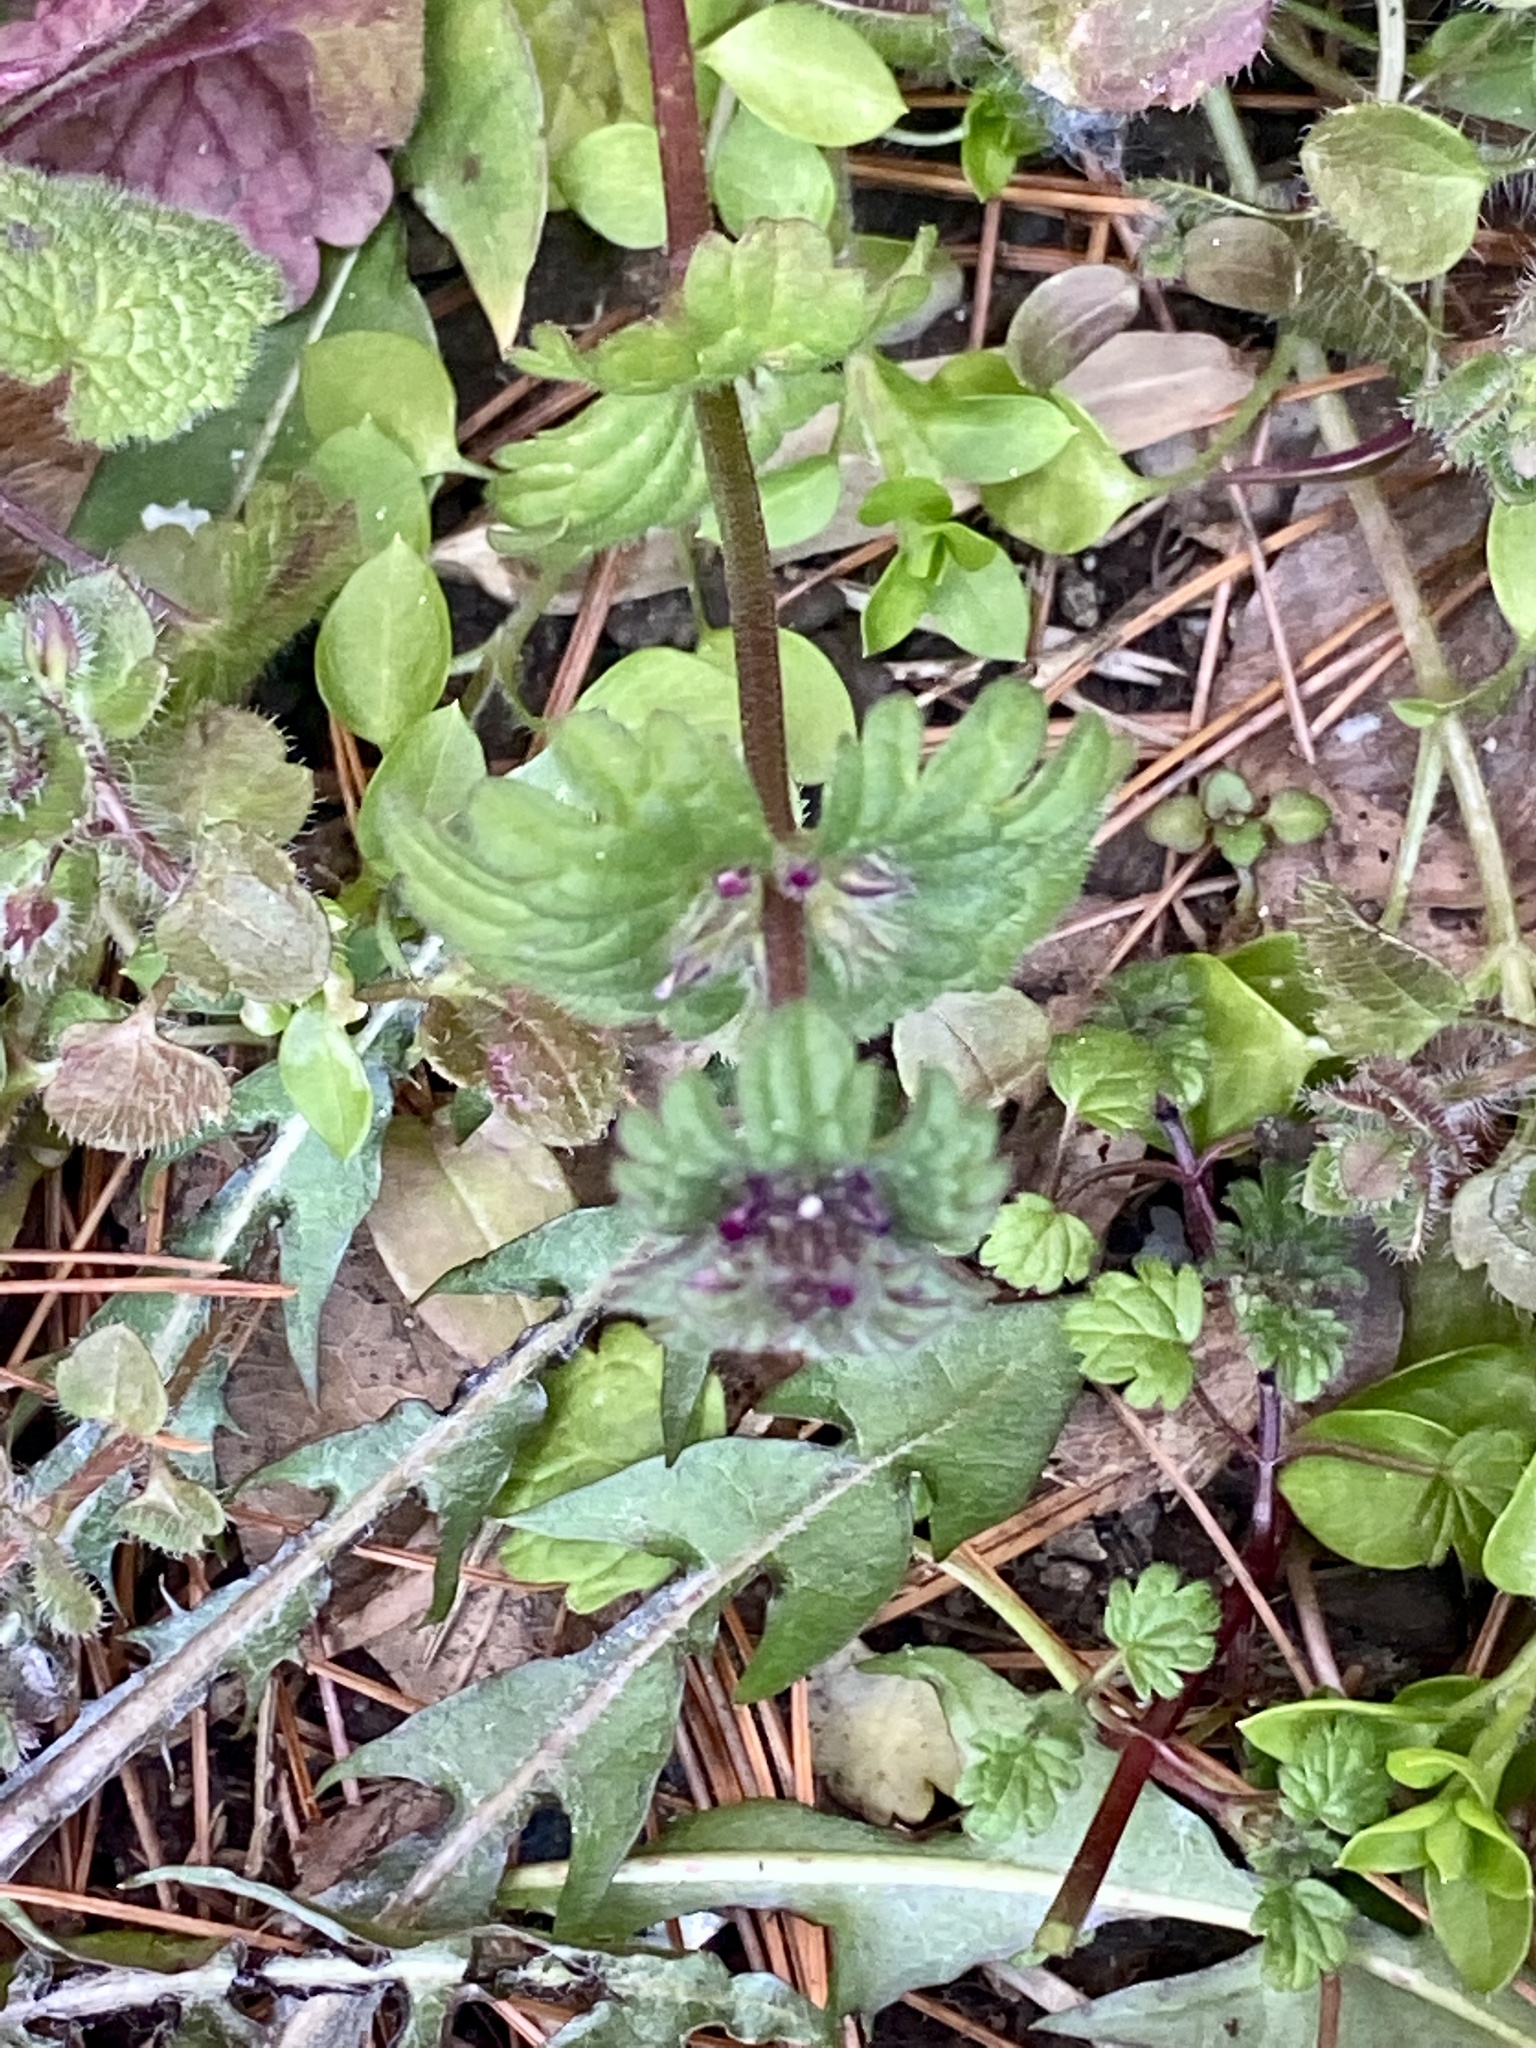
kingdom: Plantae
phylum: Tracheophyta
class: Magnoliopsida
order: Lamiales
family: Lamiaceae
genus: Lamium
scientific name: Lamium amplexicaule
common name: Henbit dead-nettle
